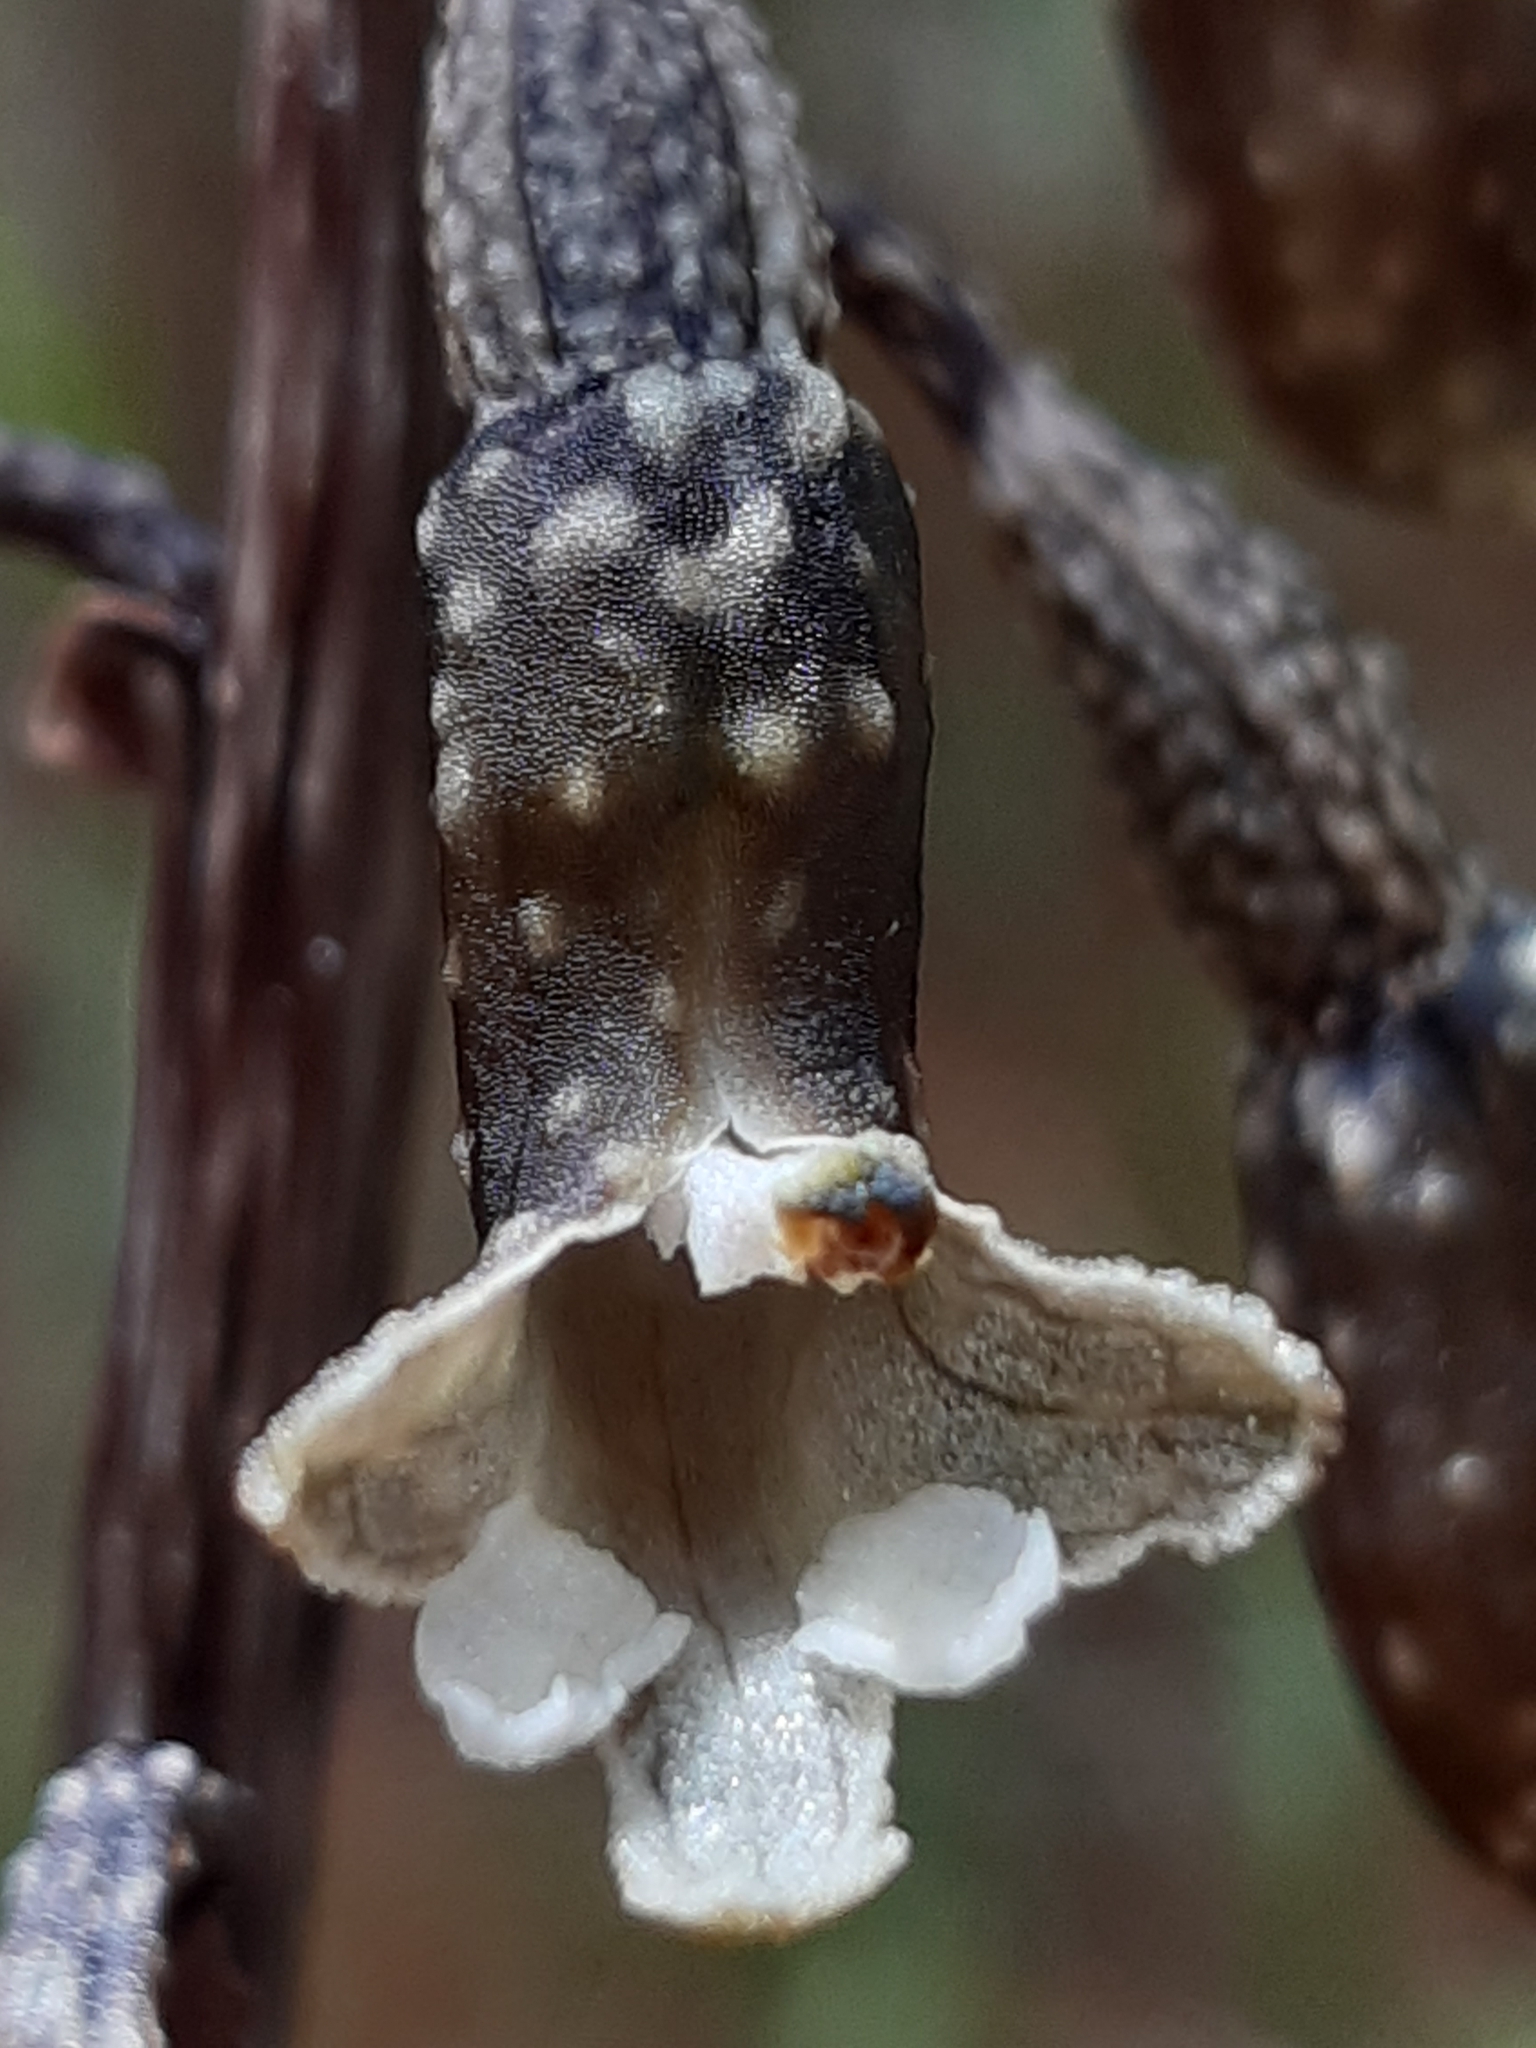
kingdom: Plantae
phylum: Tracheophyta
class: Liliopsida
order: Asparagales
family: Orchidaceae
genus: Gastrodia
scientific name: Gastrodia cunninghamii
